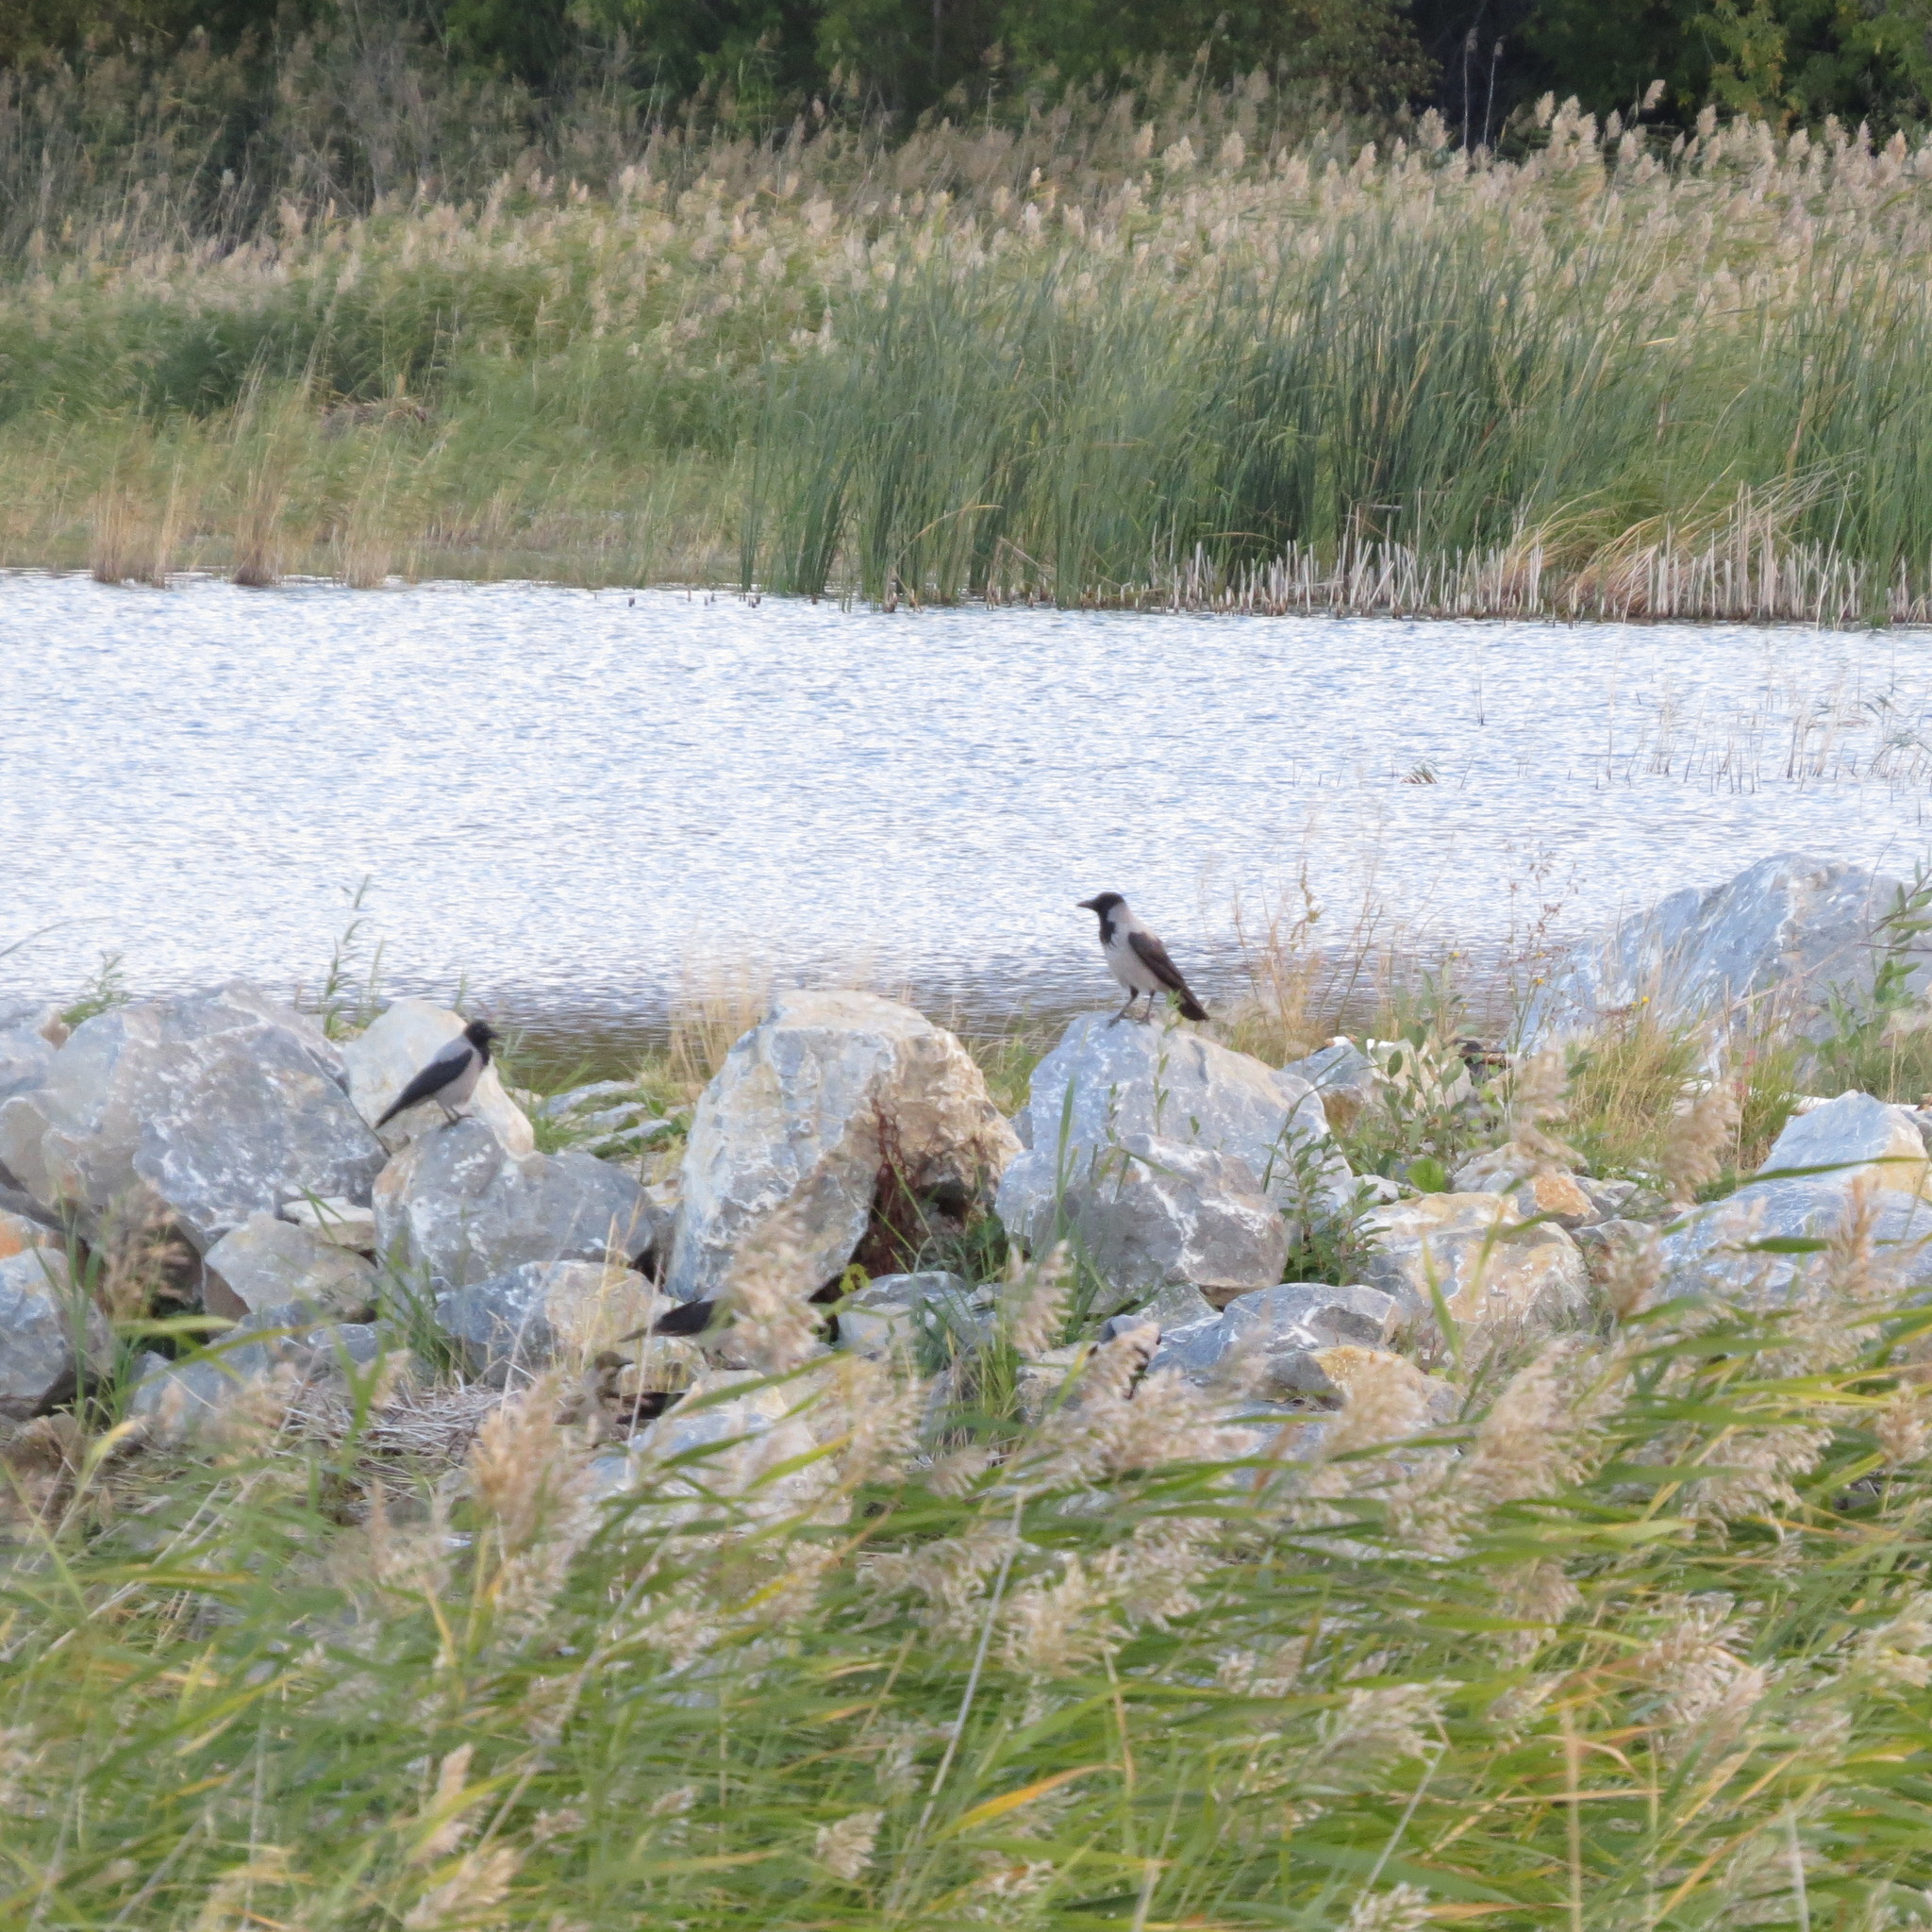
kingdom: Animalia
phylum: Chordata
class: Aves
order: Passeriformes
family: Corvidae
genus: Corvus
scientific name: Corvus cornix
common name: Hooded crow
